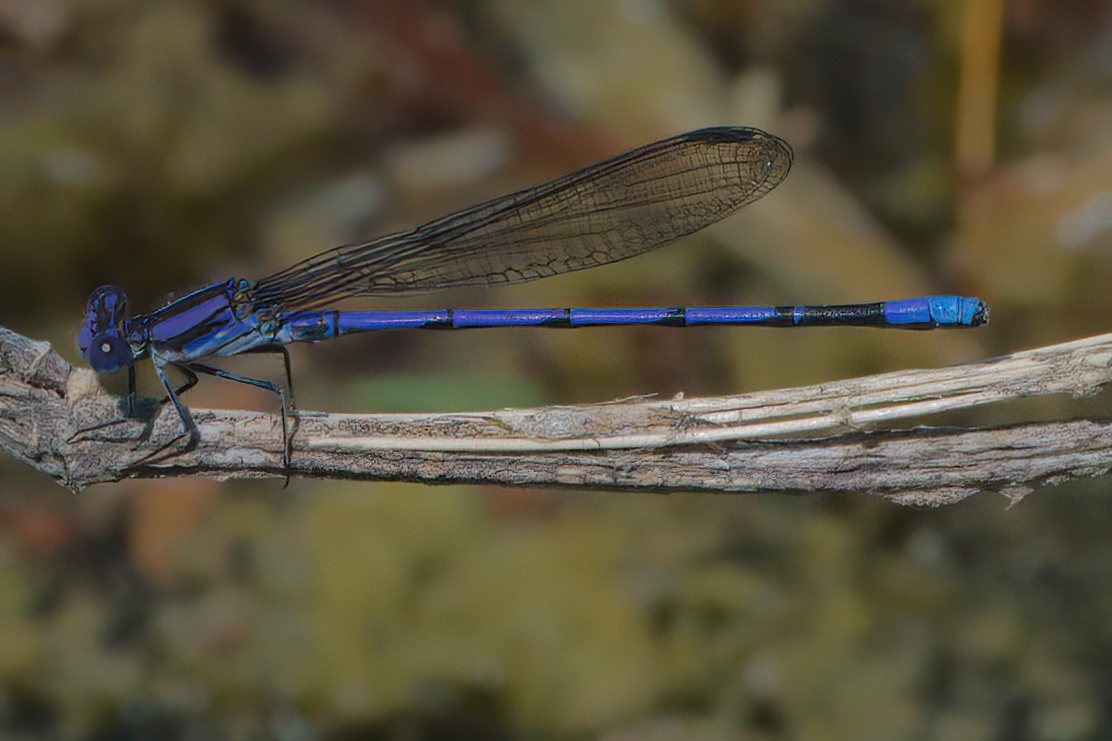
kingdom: Animalia
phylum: Arthropoda
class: Insecta
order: Odonata
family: Coenagrionidae
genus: Argia
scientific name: Argia fumipennis
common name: Variable dancer
